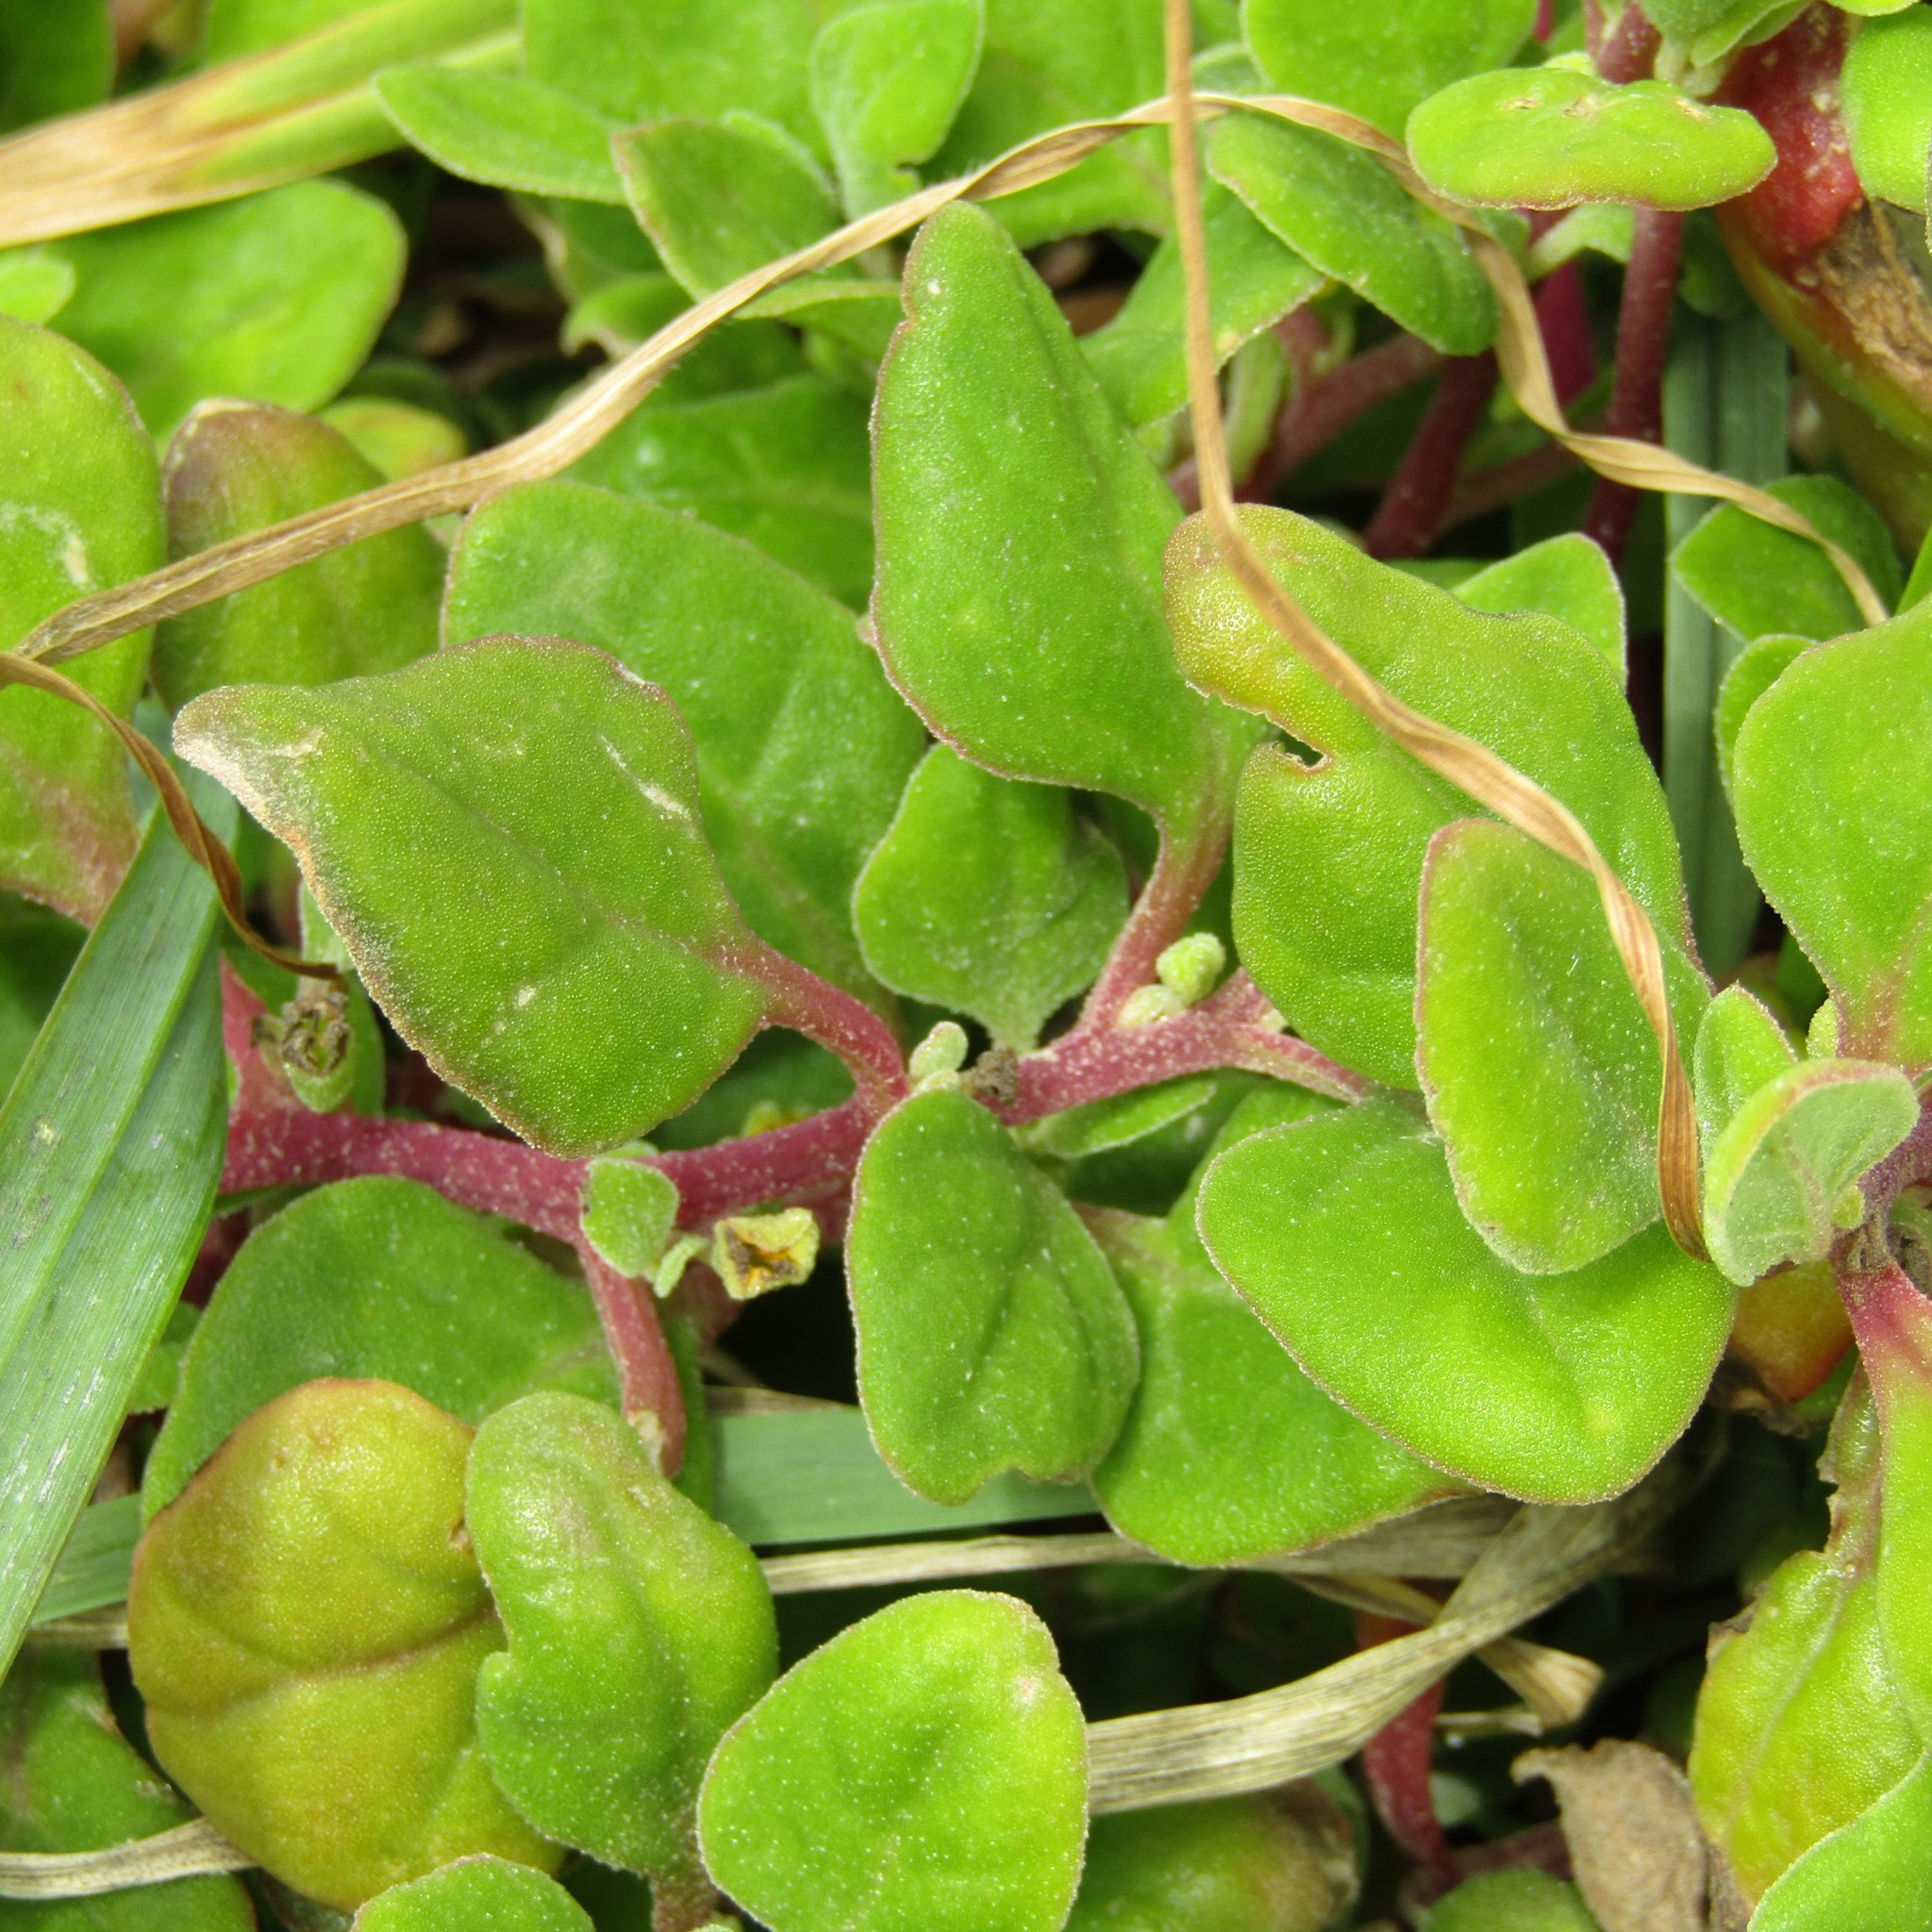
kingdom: Plantae
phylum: Tracheophyta
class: Magnoliopsida
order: Caryophyllales
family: Aizoaceae
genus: Tetragonia
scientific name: Tetragonia implexicoma
